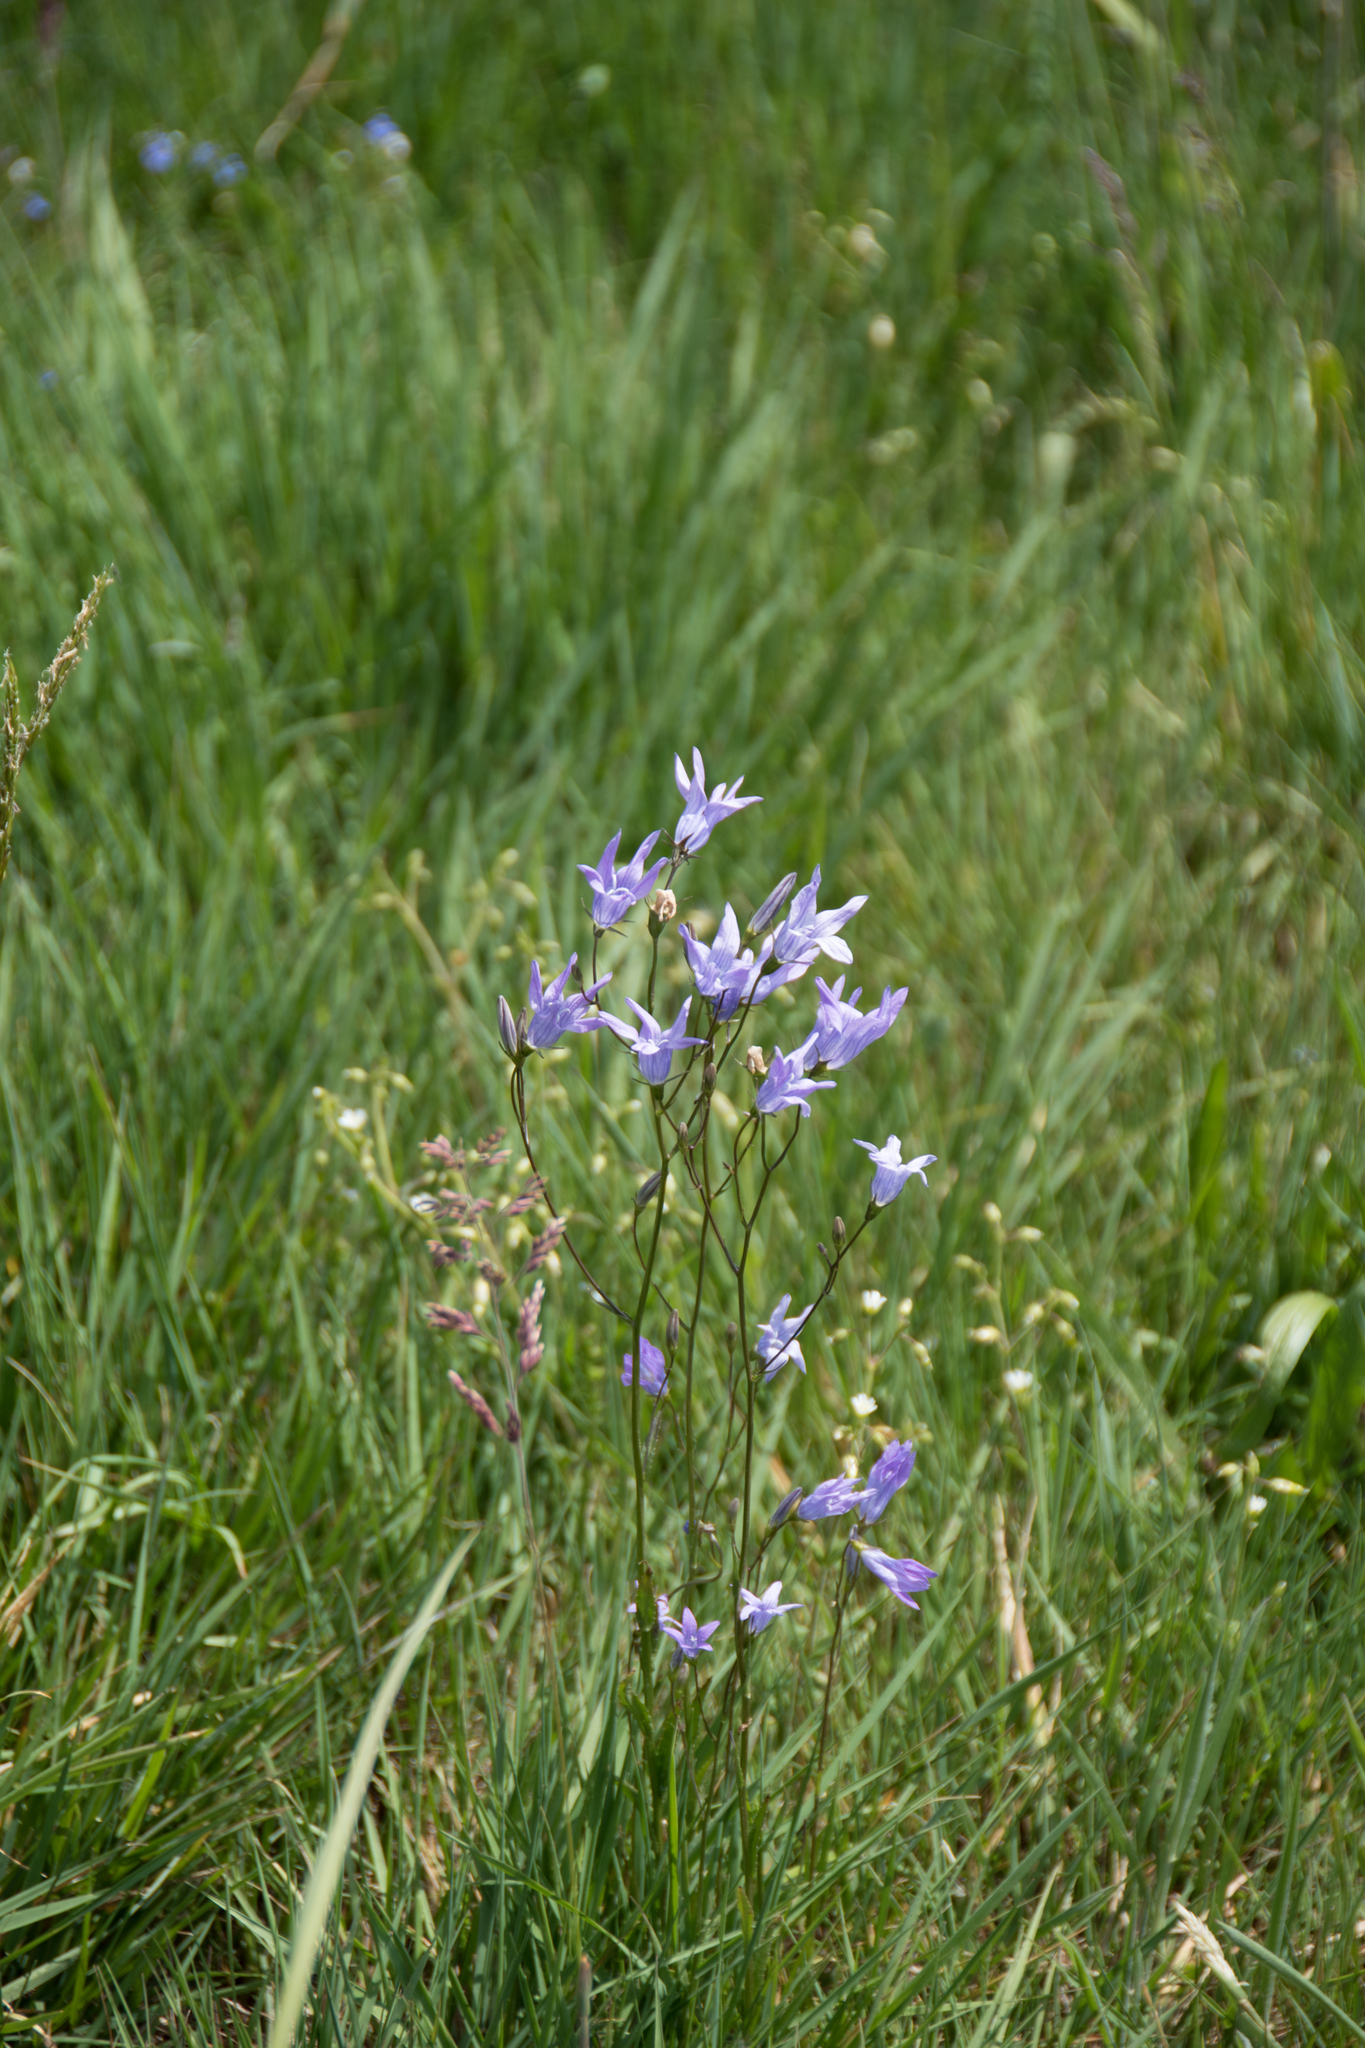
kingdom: Plantae
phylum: Tracheophyta
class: Magnoliopsida
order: Asterales
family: Campanulaceae
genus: Campanula
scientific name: Campanula patula
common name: Spreading bellflower
